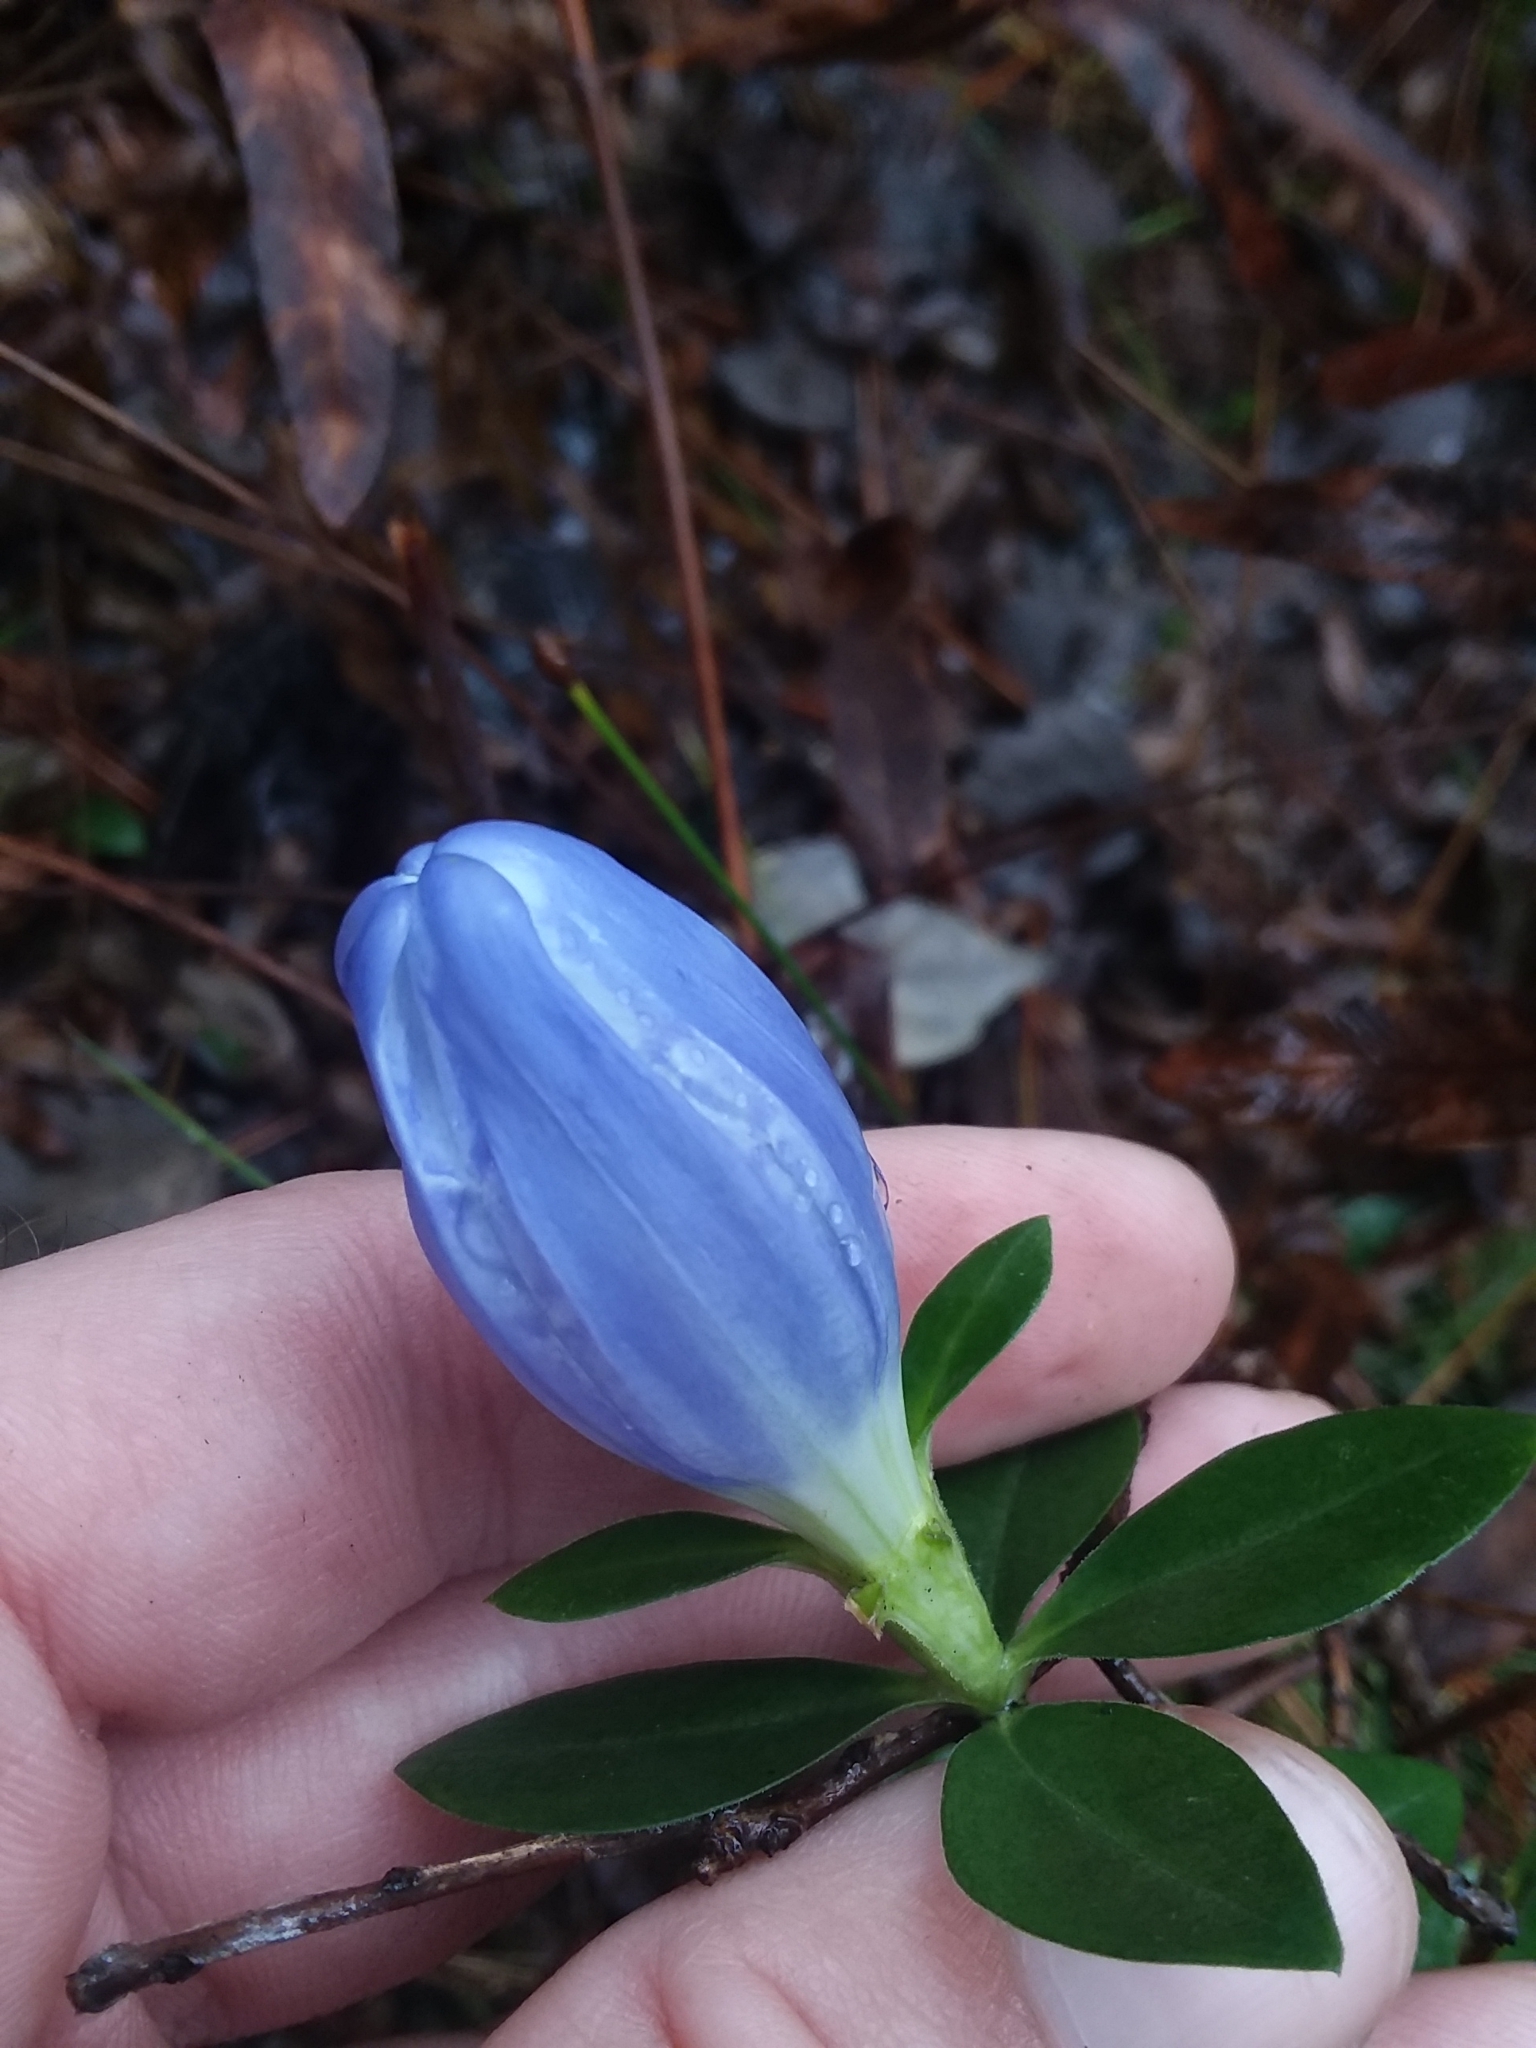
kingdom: Plantae
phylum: Tracheophyta
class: Magnoliopsida
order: Gentianales
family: Gentianaceae
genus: Gentiana
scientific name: Gentiana catesbaei
